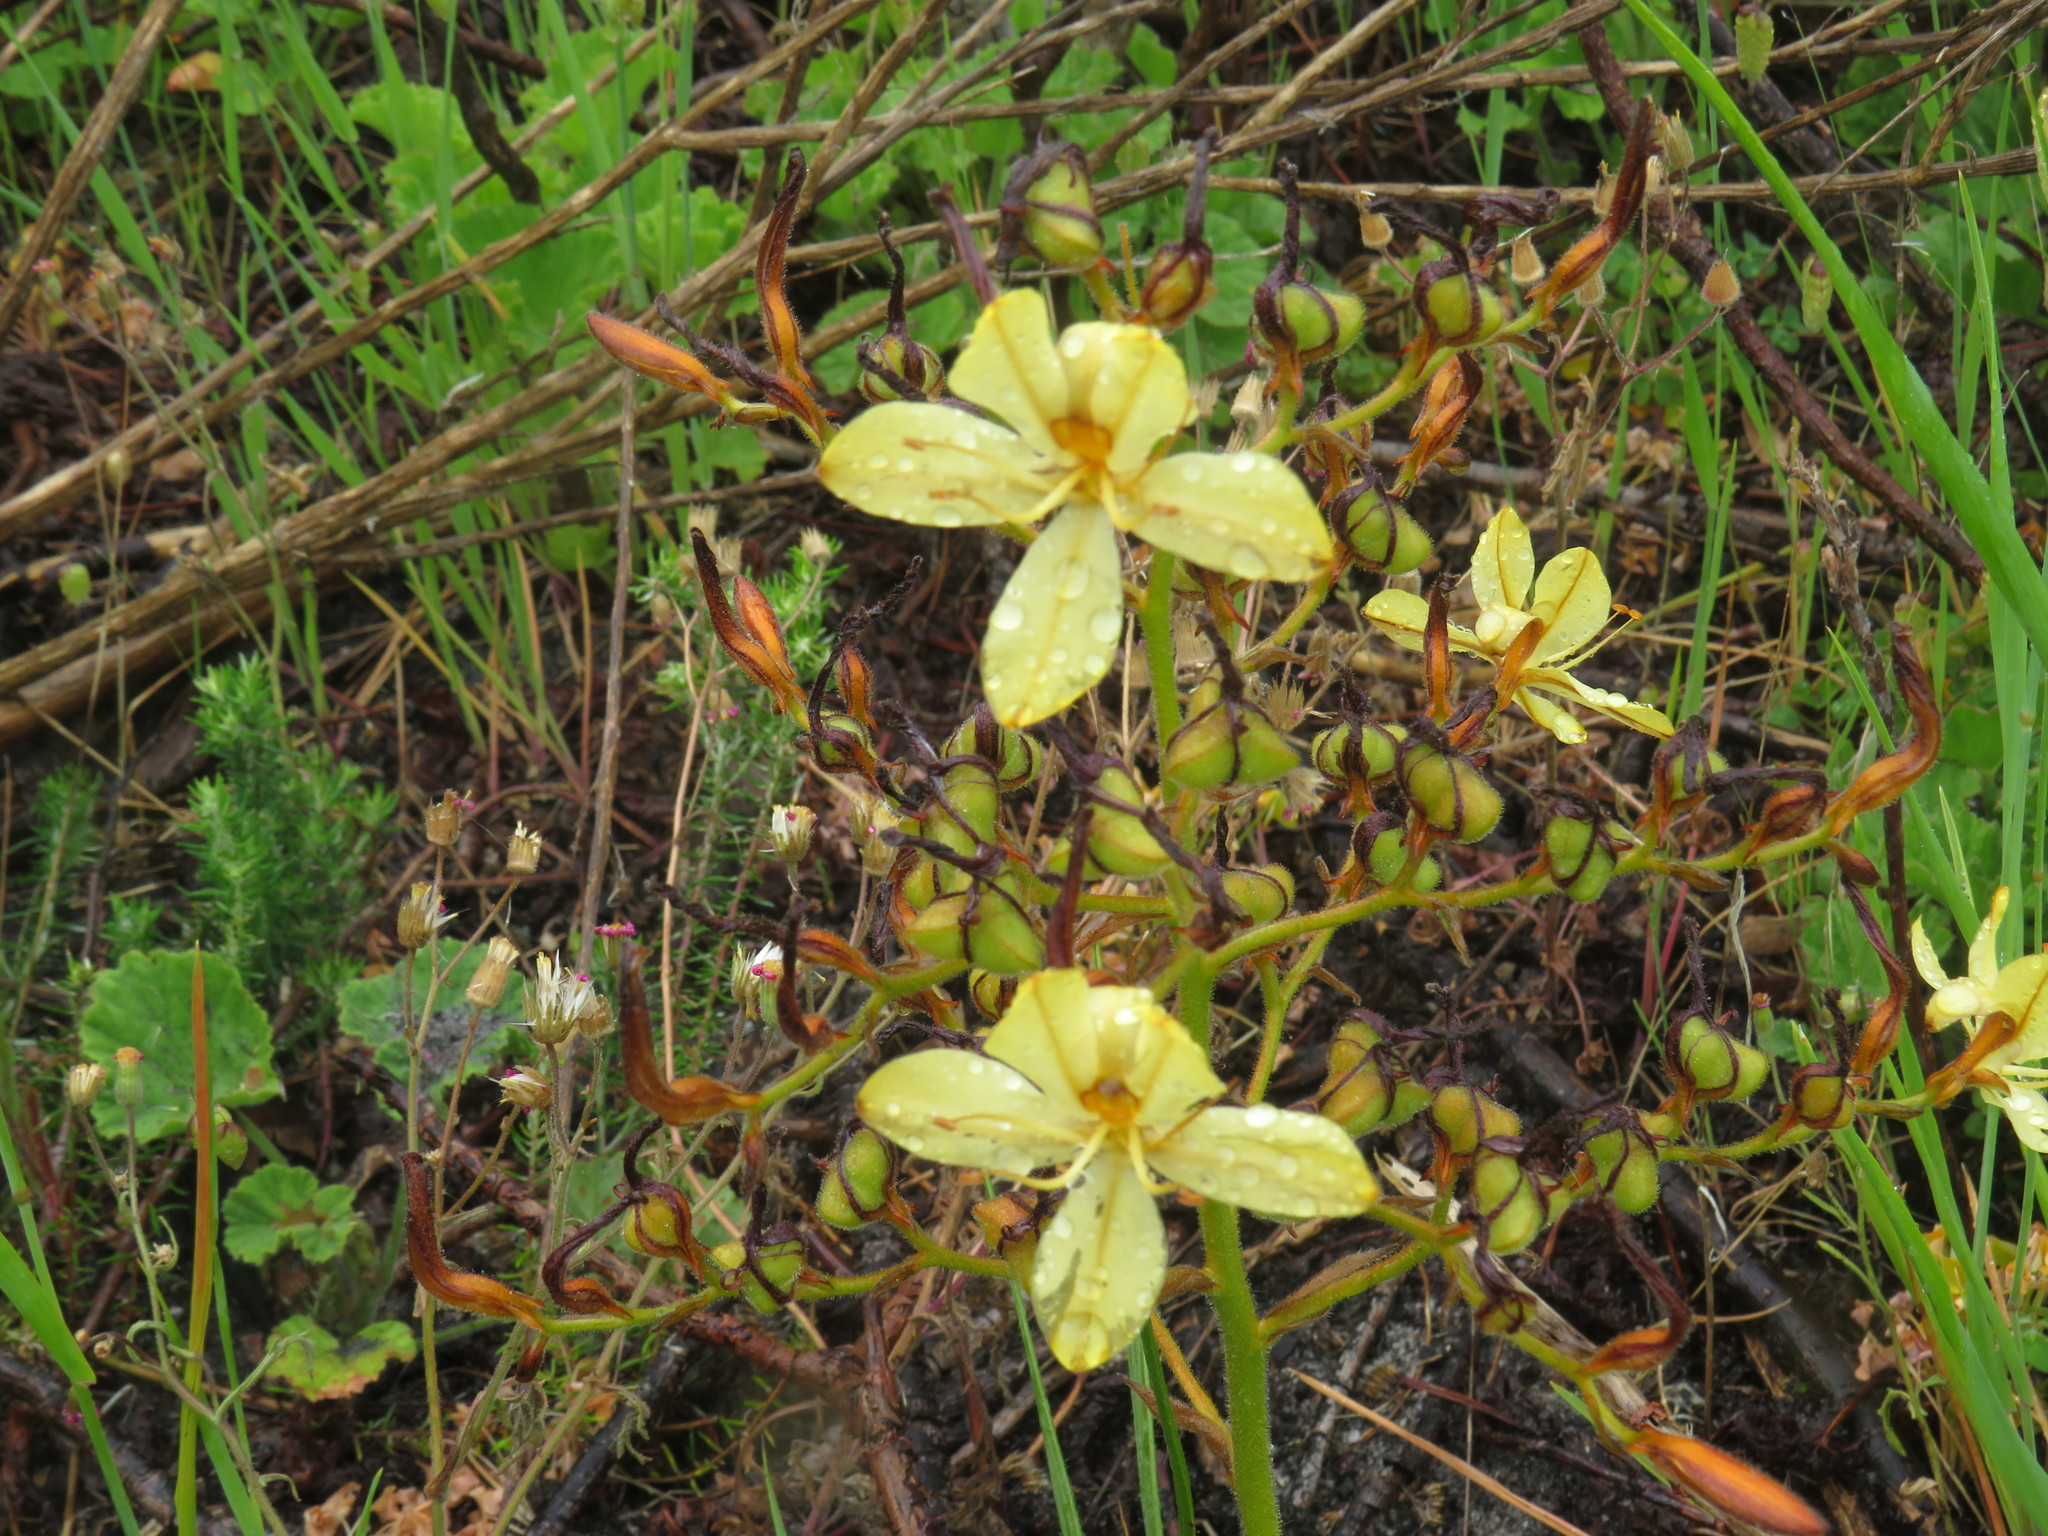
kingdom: Plantae
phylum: Tracheophyta
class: Liliopsida
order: Commelinales
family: Haemodoraceae
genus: Wachendorfia
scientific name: Wachendorfia paniculata
